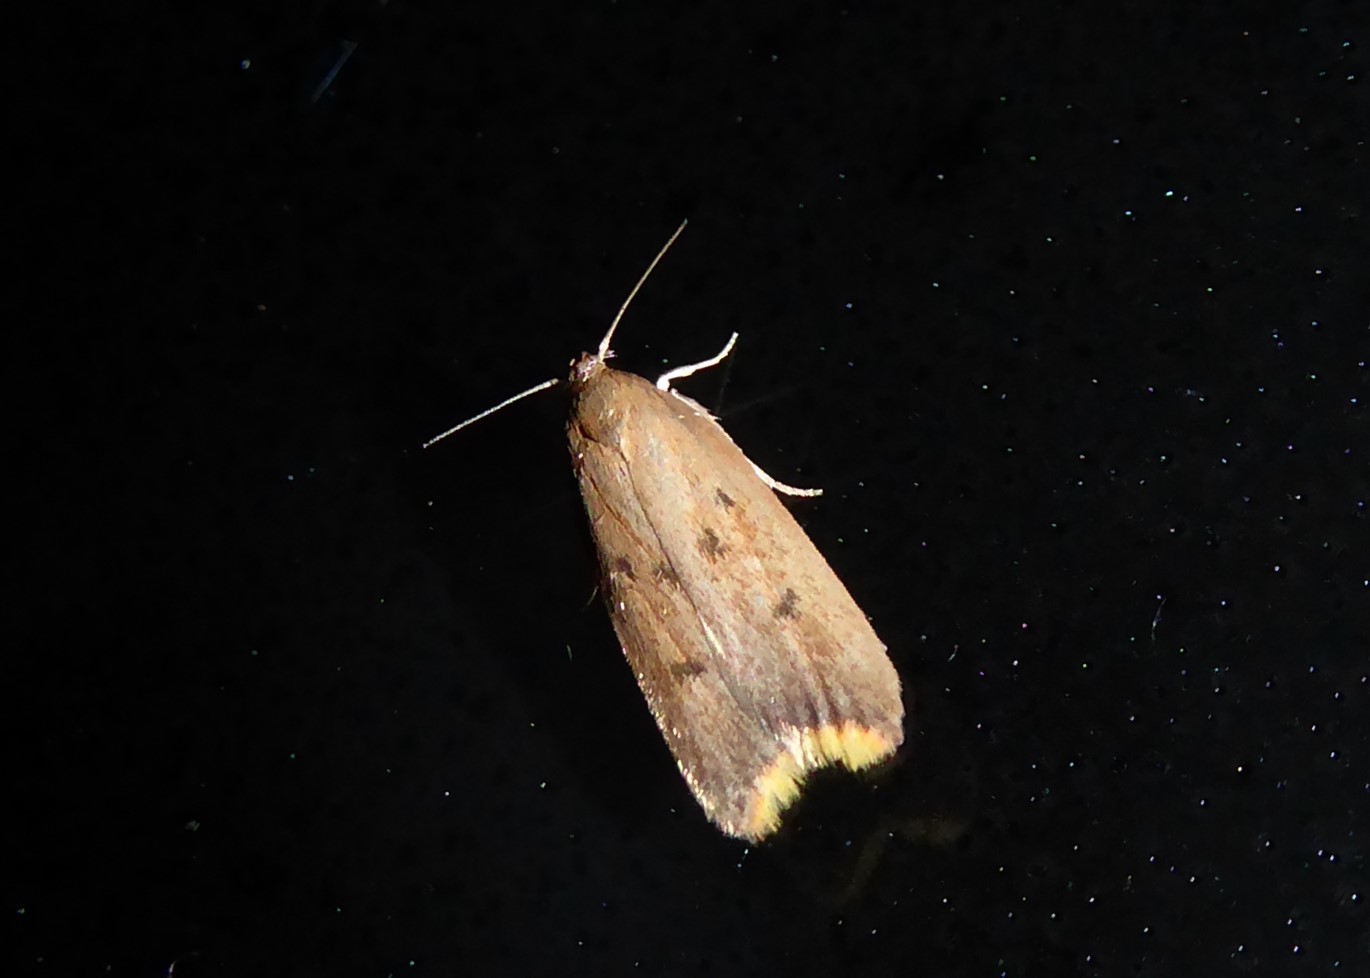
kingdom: Animalia
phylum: Arthropoda
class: Insecta
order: Lepidoptera
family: Oecophoridae
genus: Tachystola
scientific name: Tachystola acroxantha
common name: Ruddy streak
